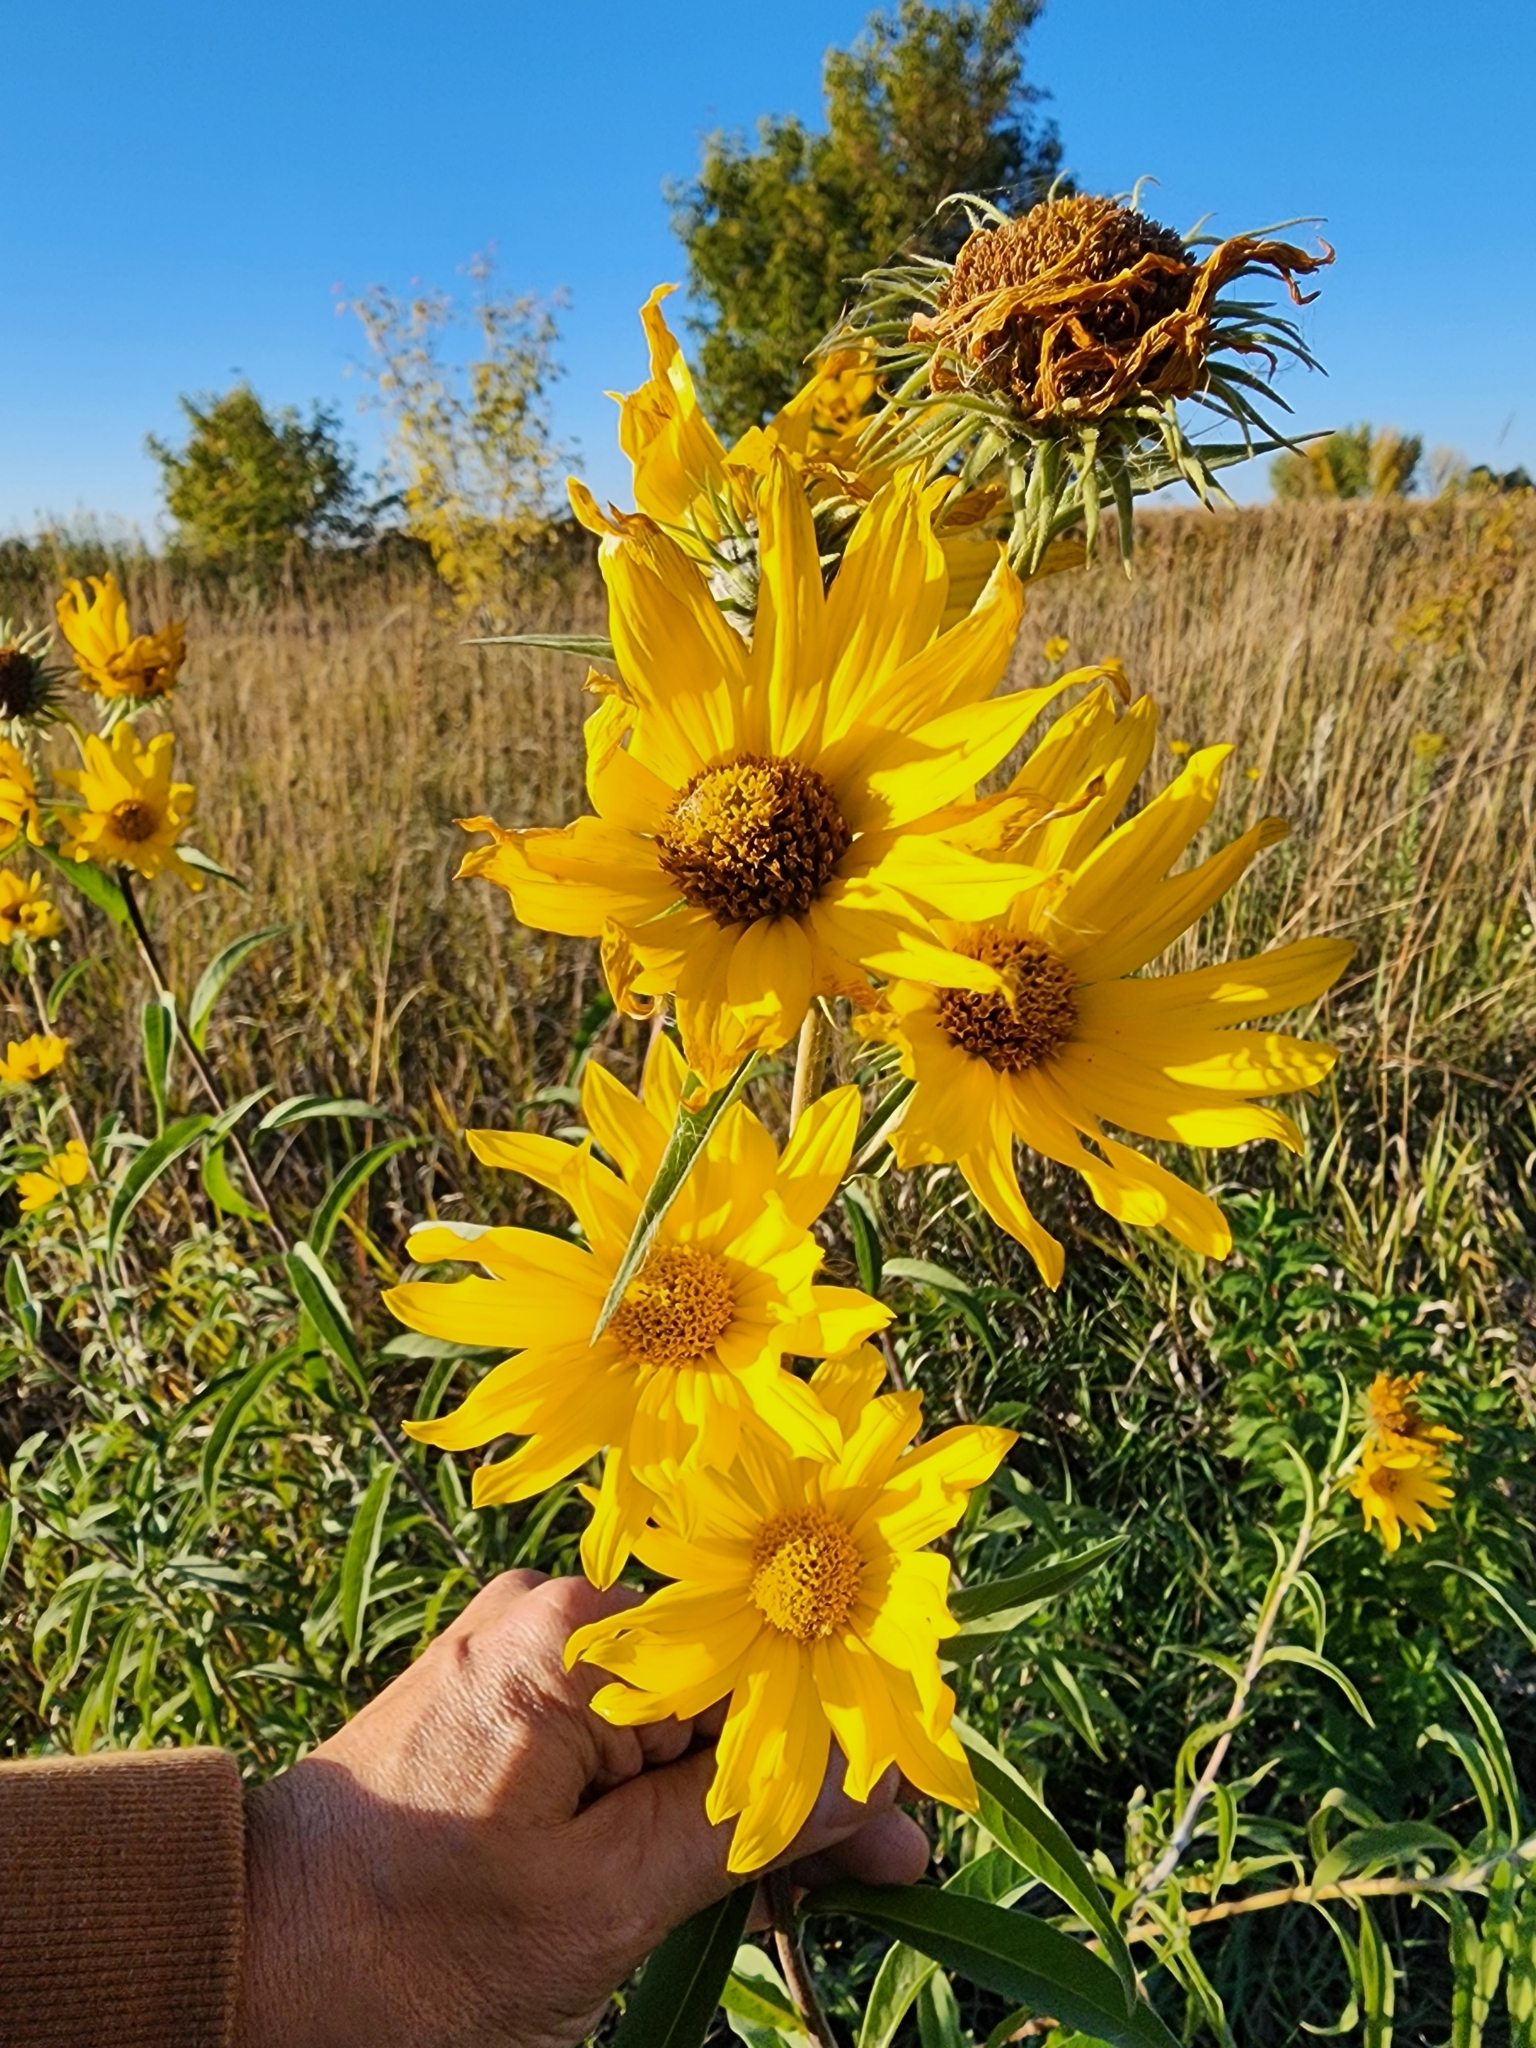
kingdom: Plantae
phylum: Tracheophyta
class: Magnoliopsida
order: Asterales
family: Asteraceae
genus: Helianthus
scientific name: Helianthus maximiliani
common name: Maximilian's sunflower
